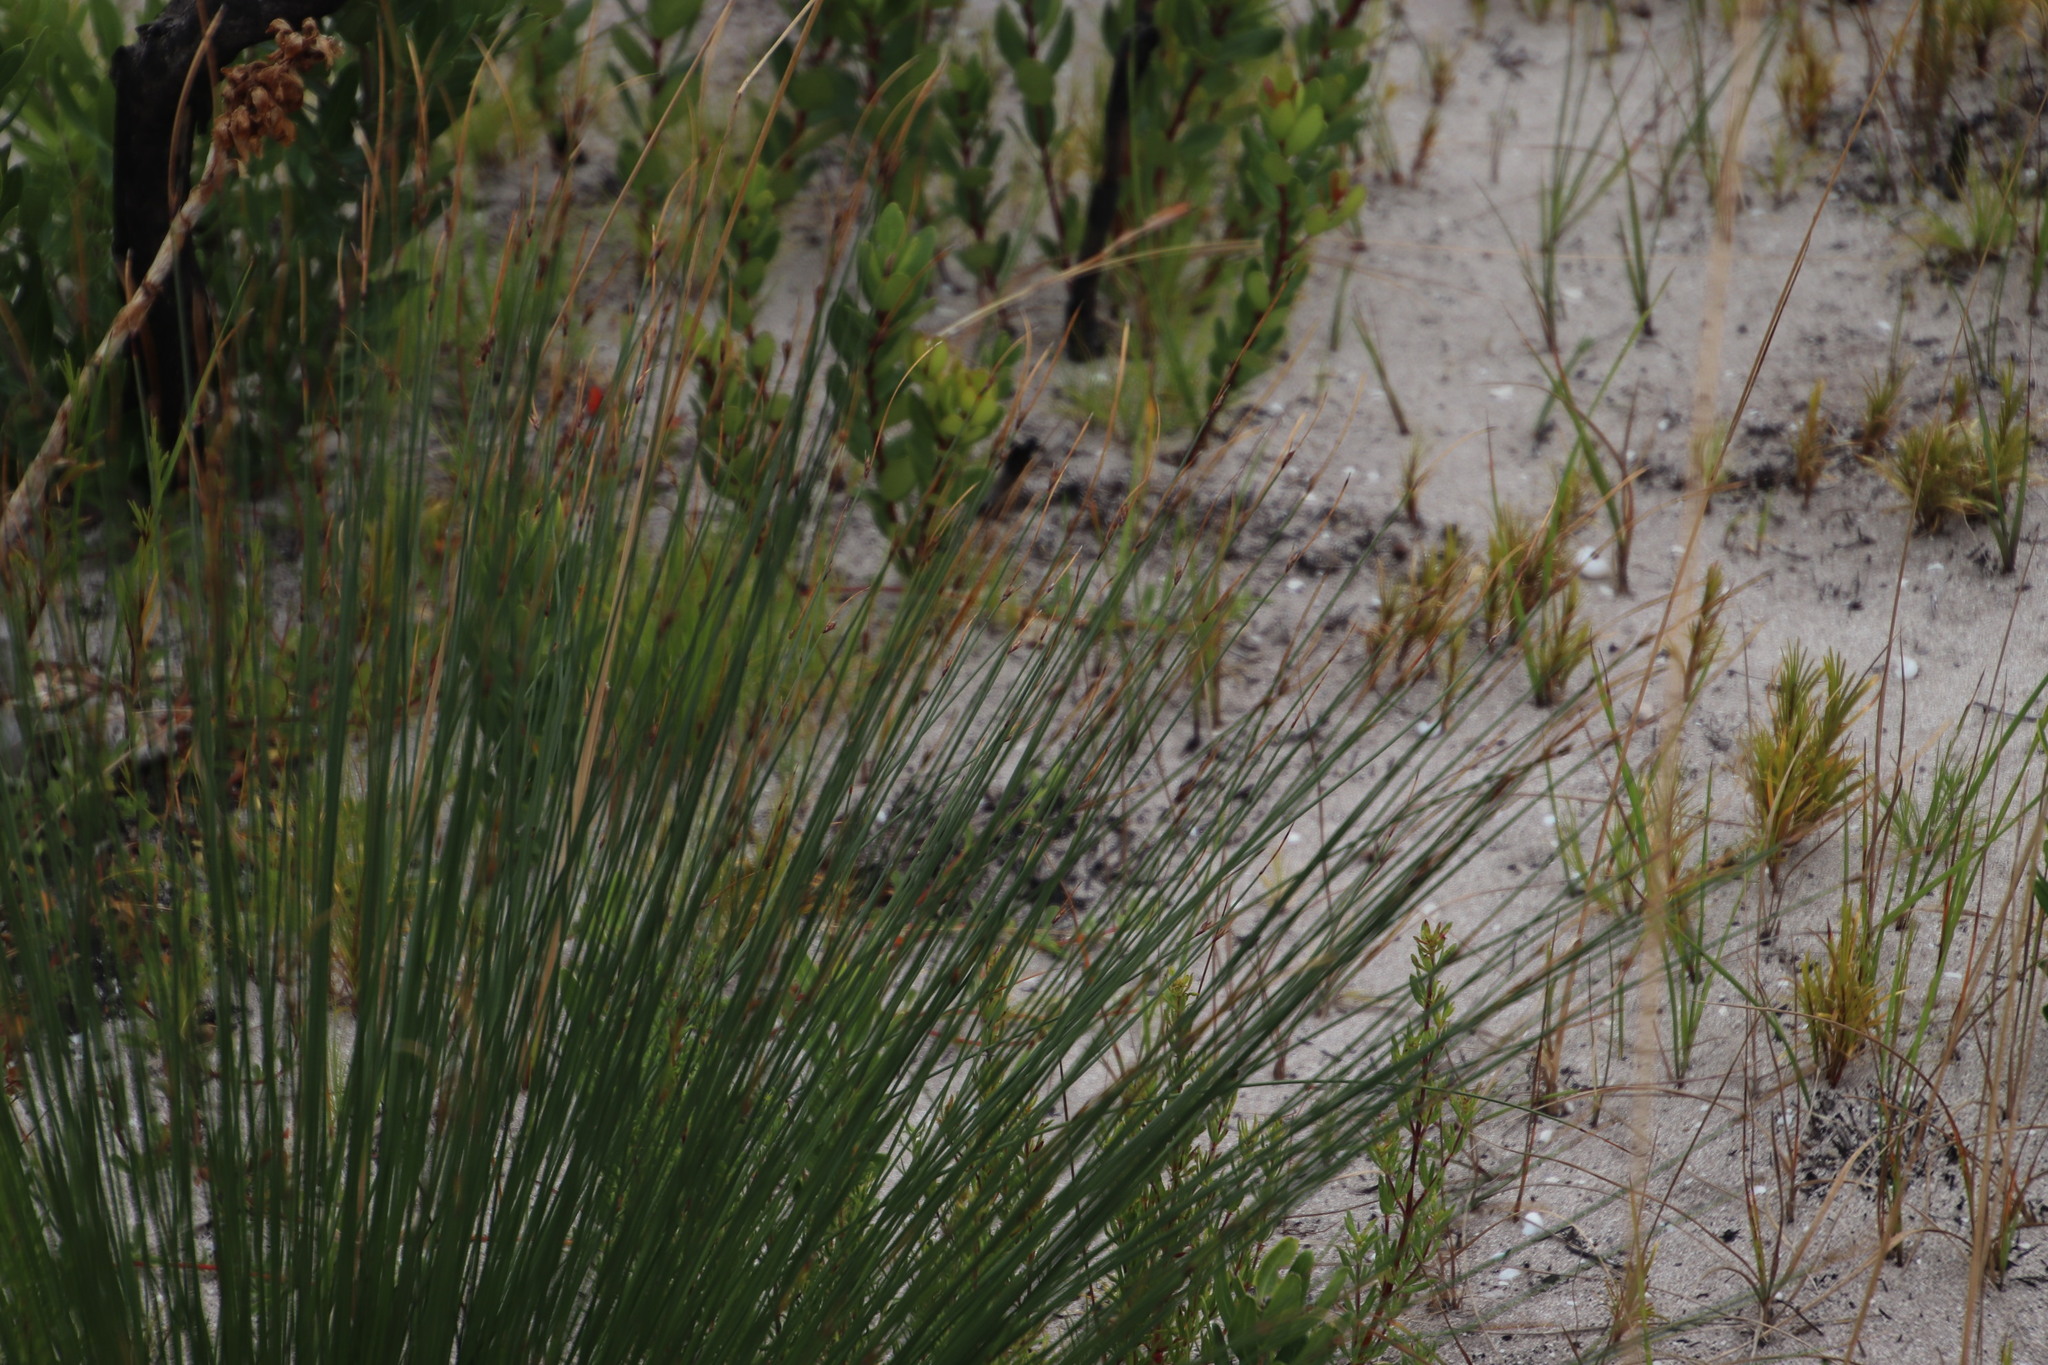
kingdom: Plantae
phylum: Tracheophyta
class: Liliopsida
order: Poales
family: Cyperaceae
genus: Schoenus
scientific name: Schoenus arenicola
